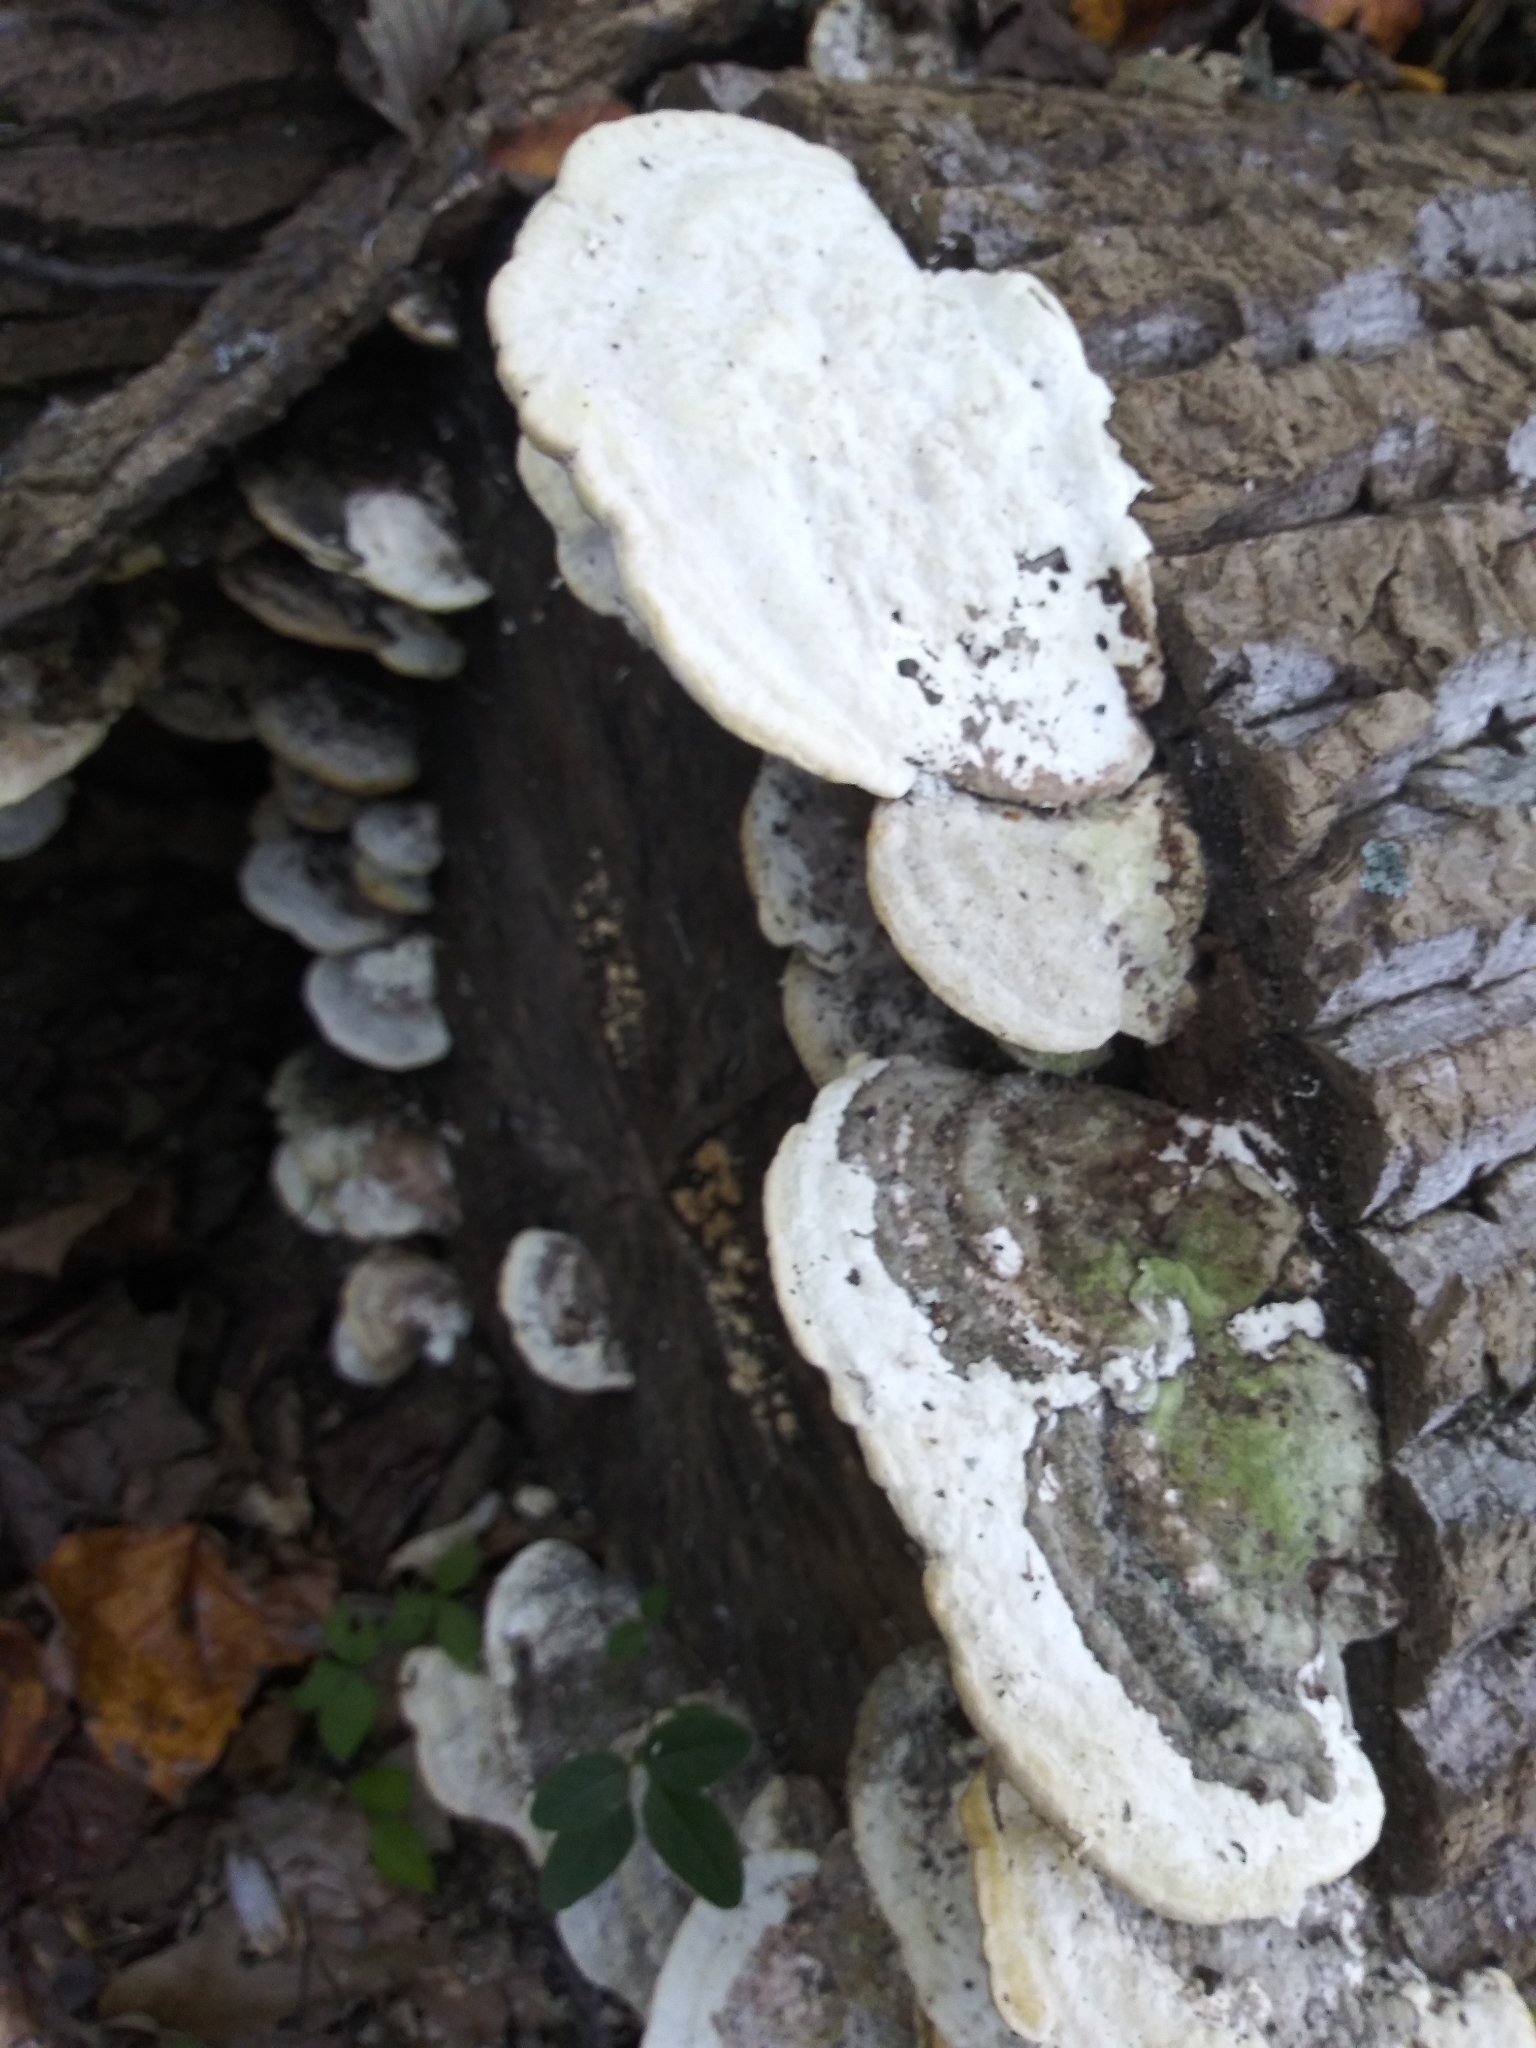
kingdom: Fungi
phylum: Basidiomycota
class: Agaricomycetes
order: Polyporales
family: Polyporaceae
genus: Trametes
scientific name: Trametes gibbosa
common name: Lumpy bracket
